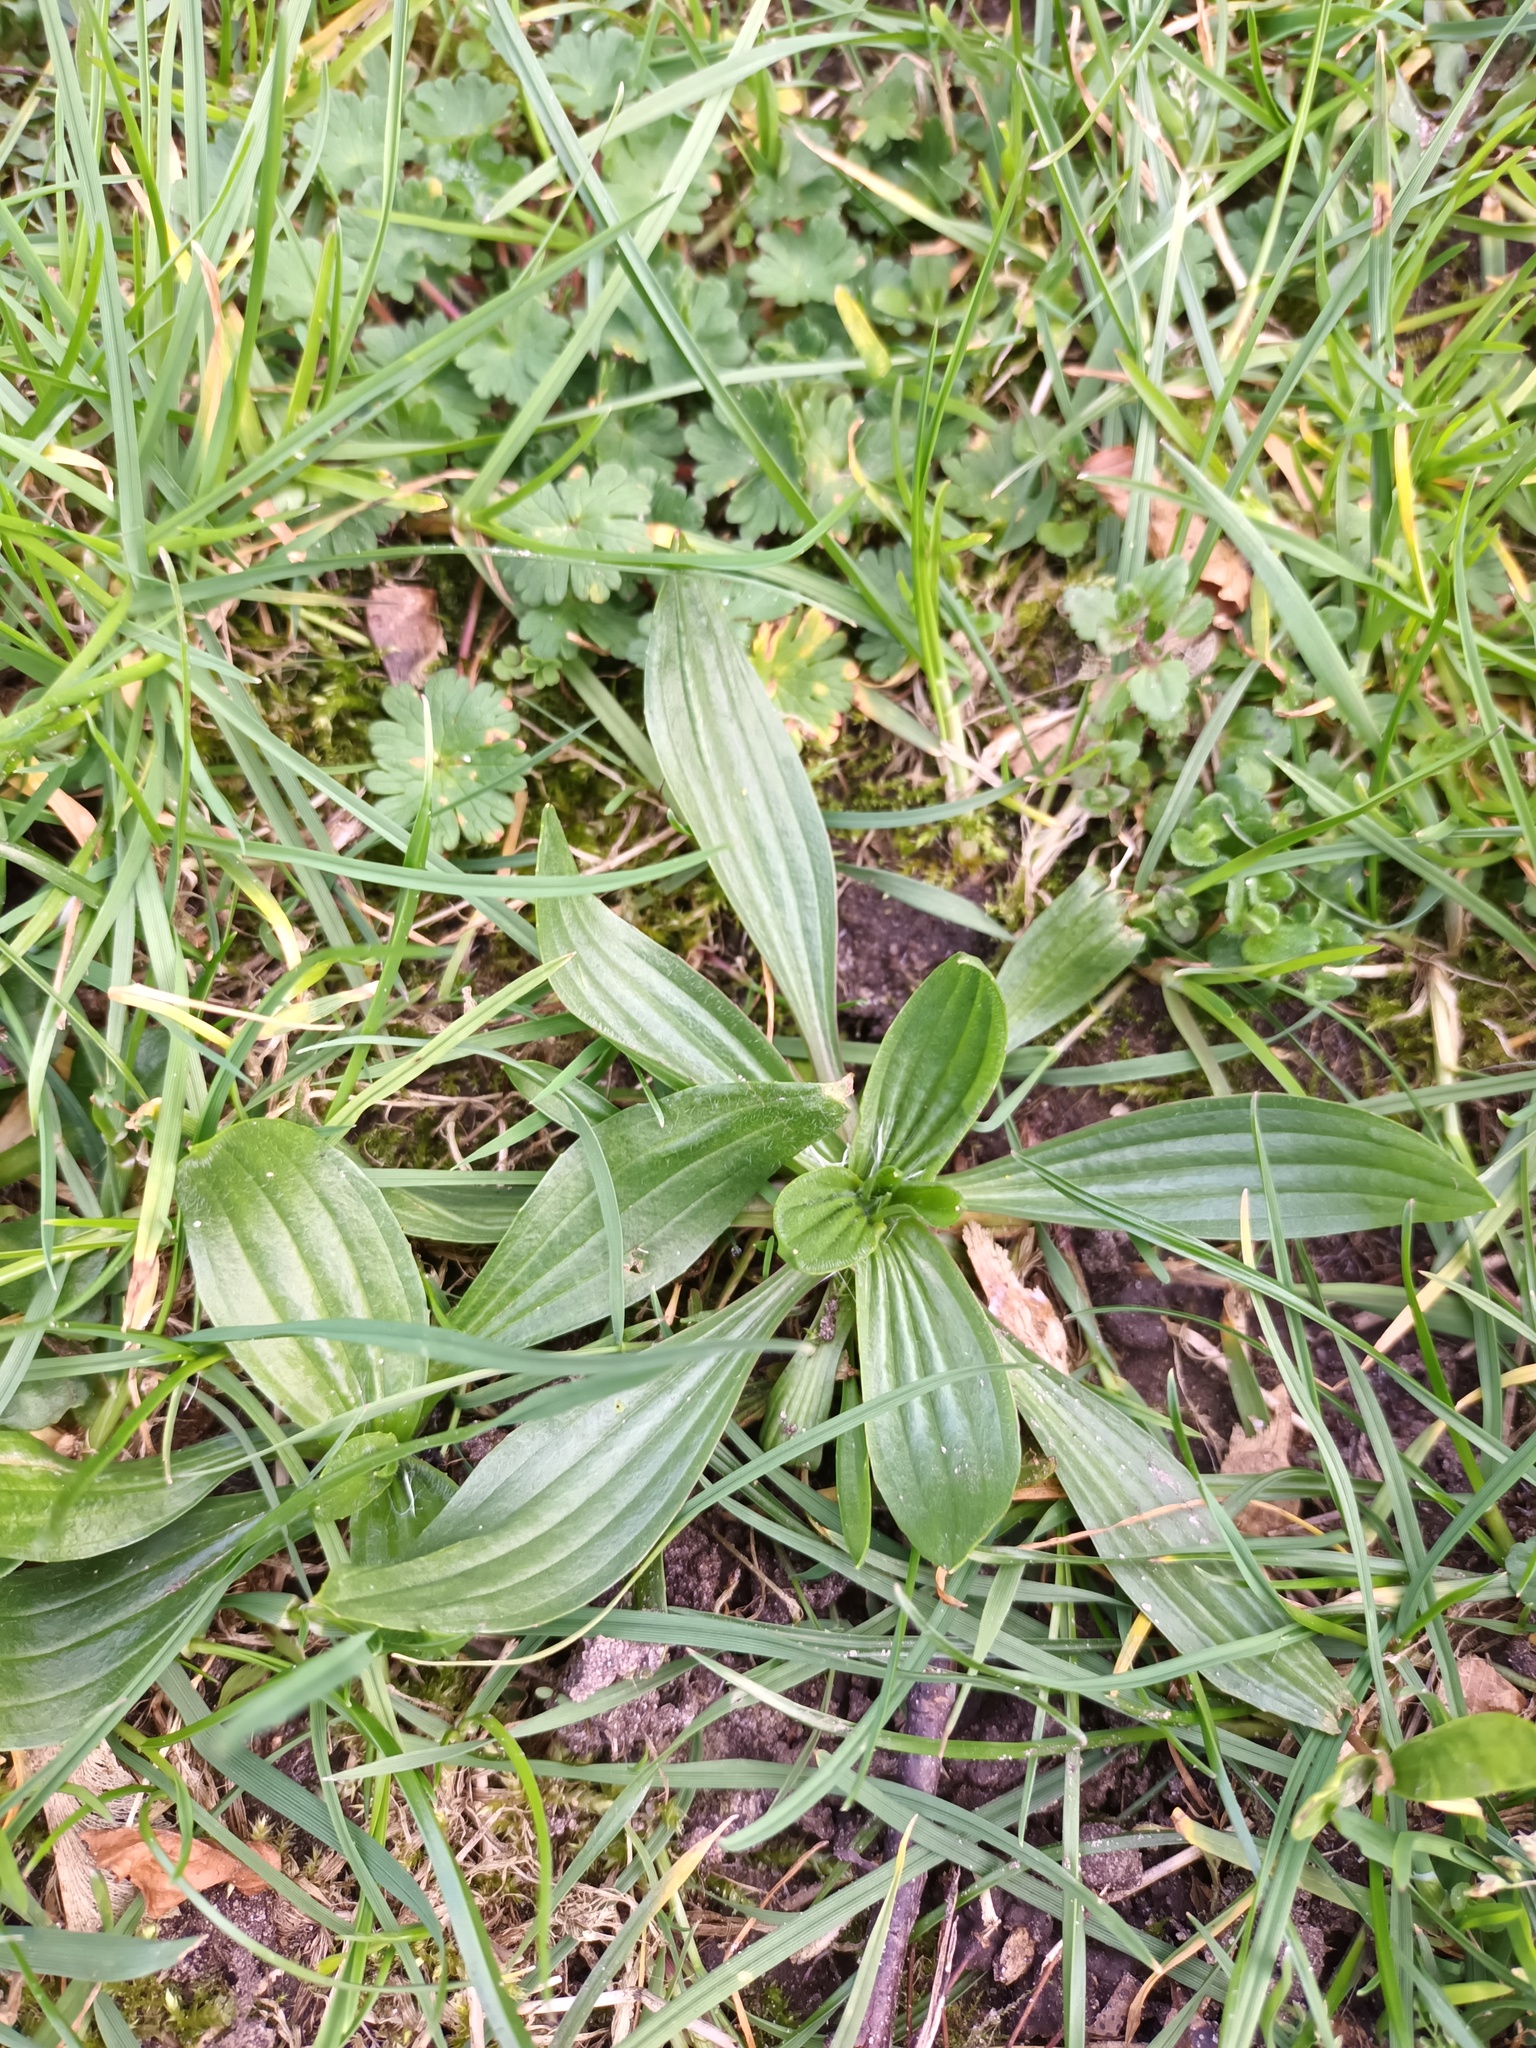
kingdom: Plantae
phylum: Tracheophyta
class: Magnoliopsida
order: Lamiales
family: Plantaginaceae
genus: Plantago
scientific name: Plantago lanceolata
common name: Ribwort plantain
